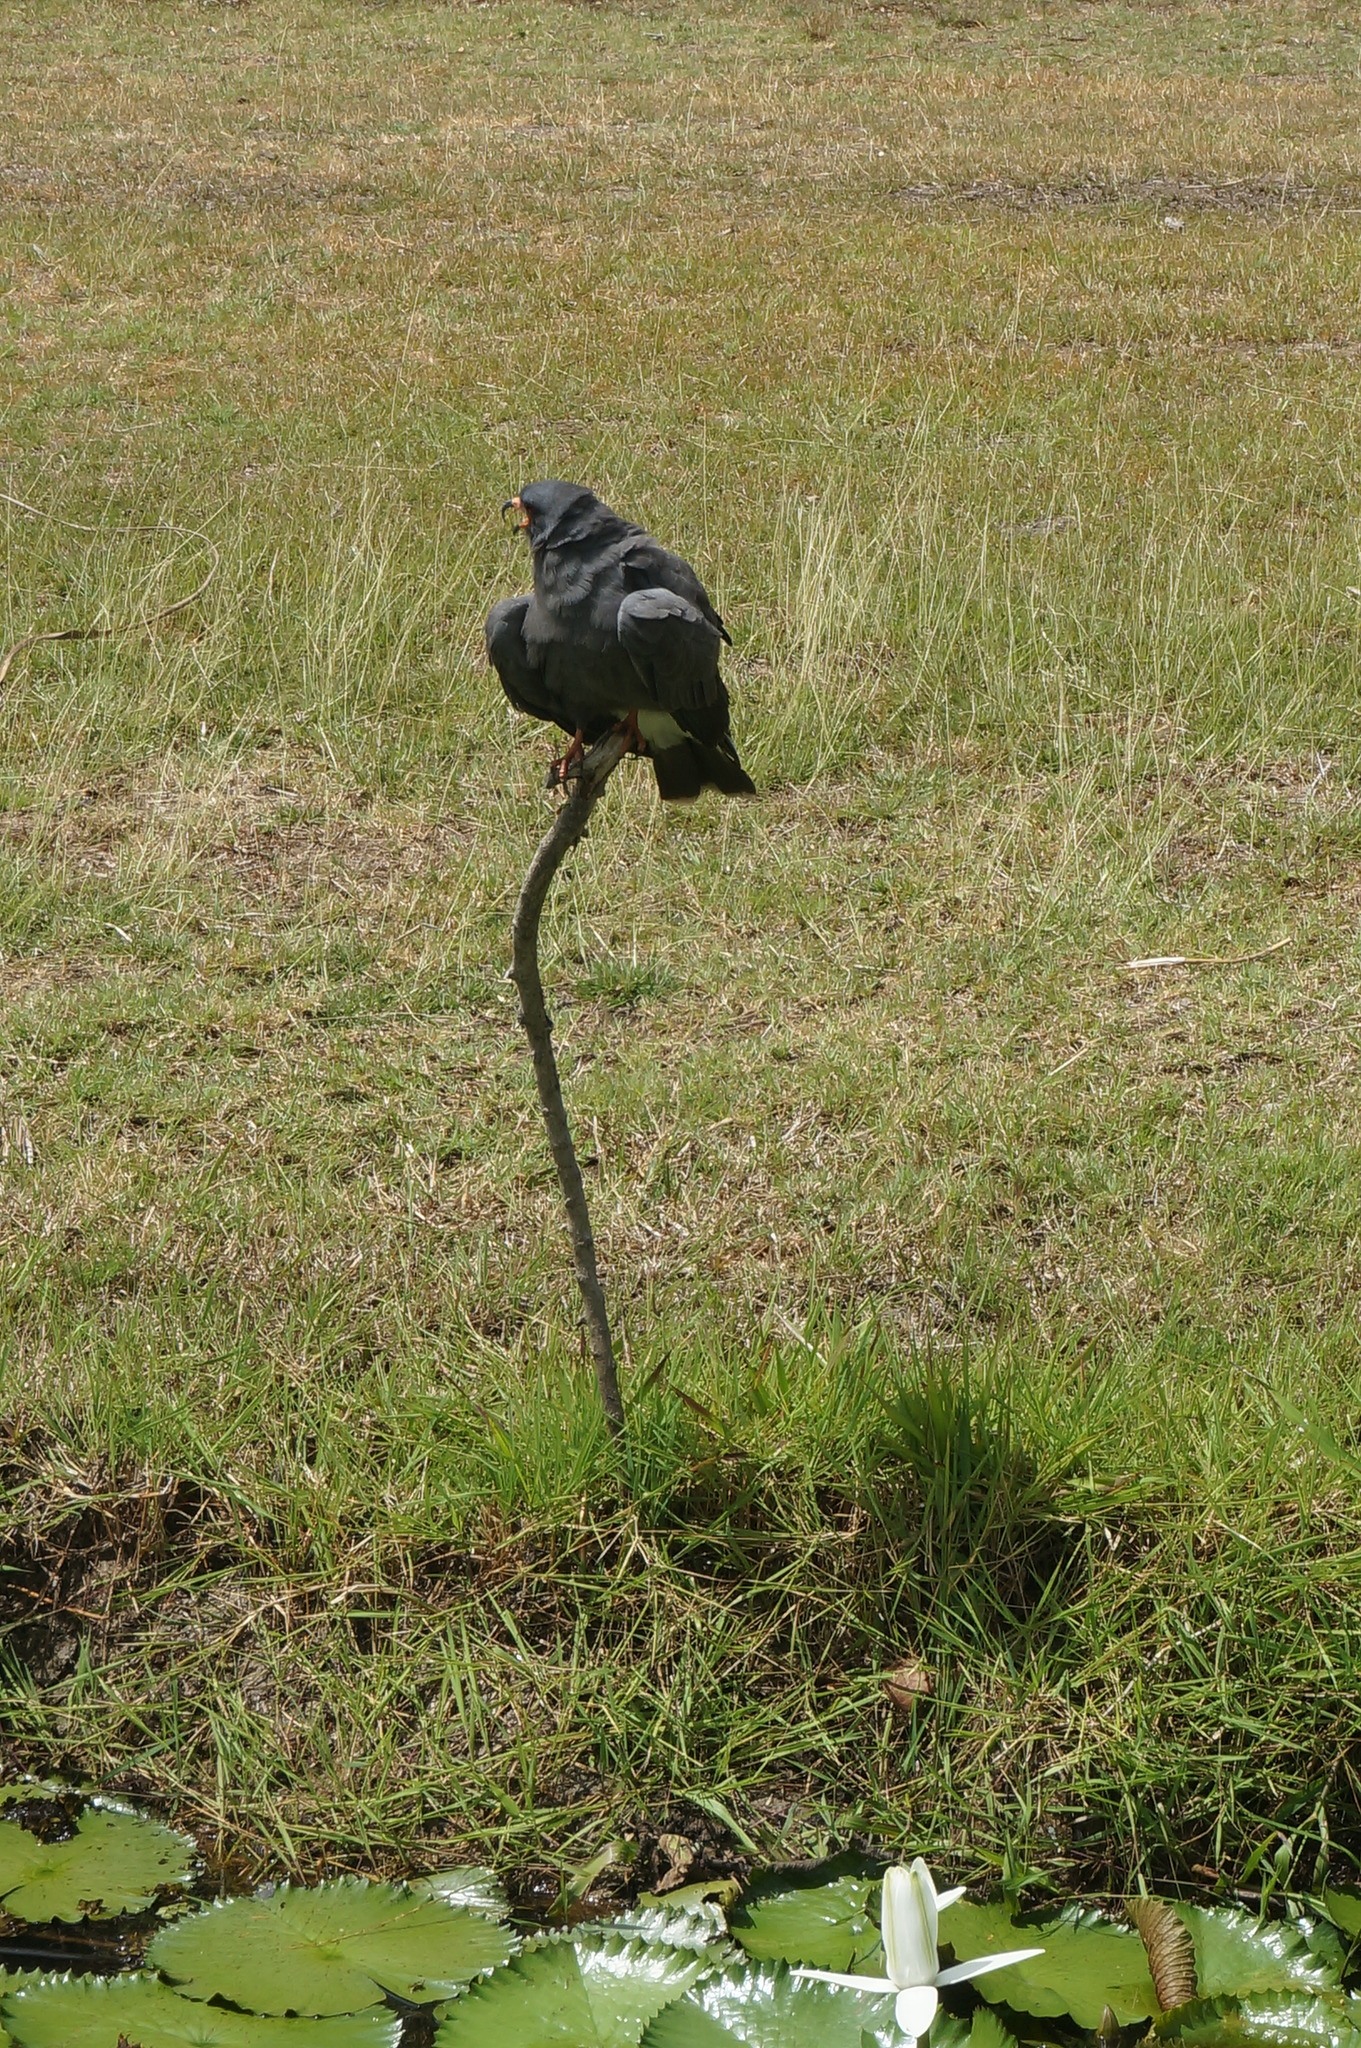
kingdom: Animalia
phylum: Chordata
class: Aves
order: Accipitriformes
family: Accipitridae
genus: Rostrhamus
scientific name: Rostrhamus sociabilis
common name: Snail kite
